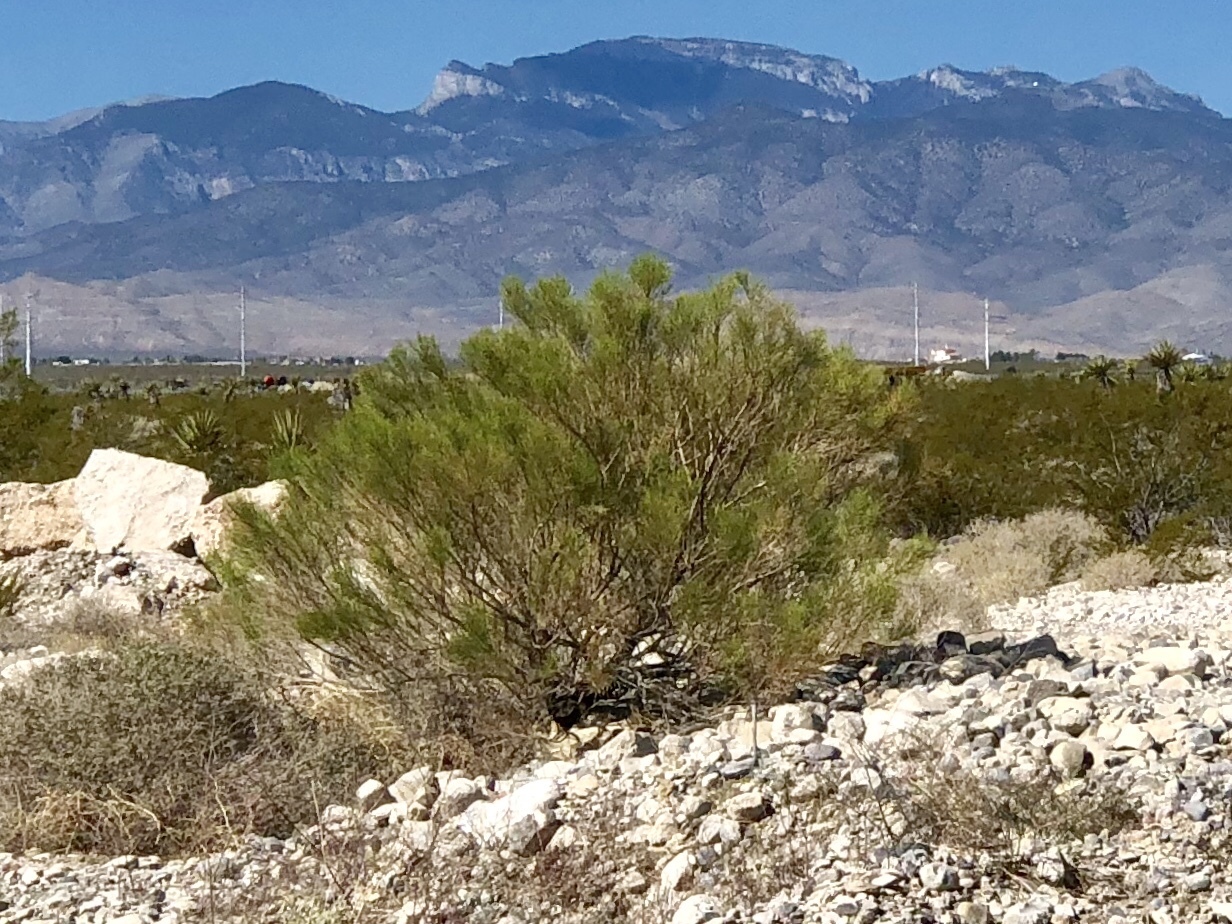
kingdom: Plantae
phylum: Tracheophyta
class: Magnoliopsida
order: Asterales
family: Asteraceae
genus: Baccharis
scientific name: Baccharis sarothroides
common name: Desert-broom
